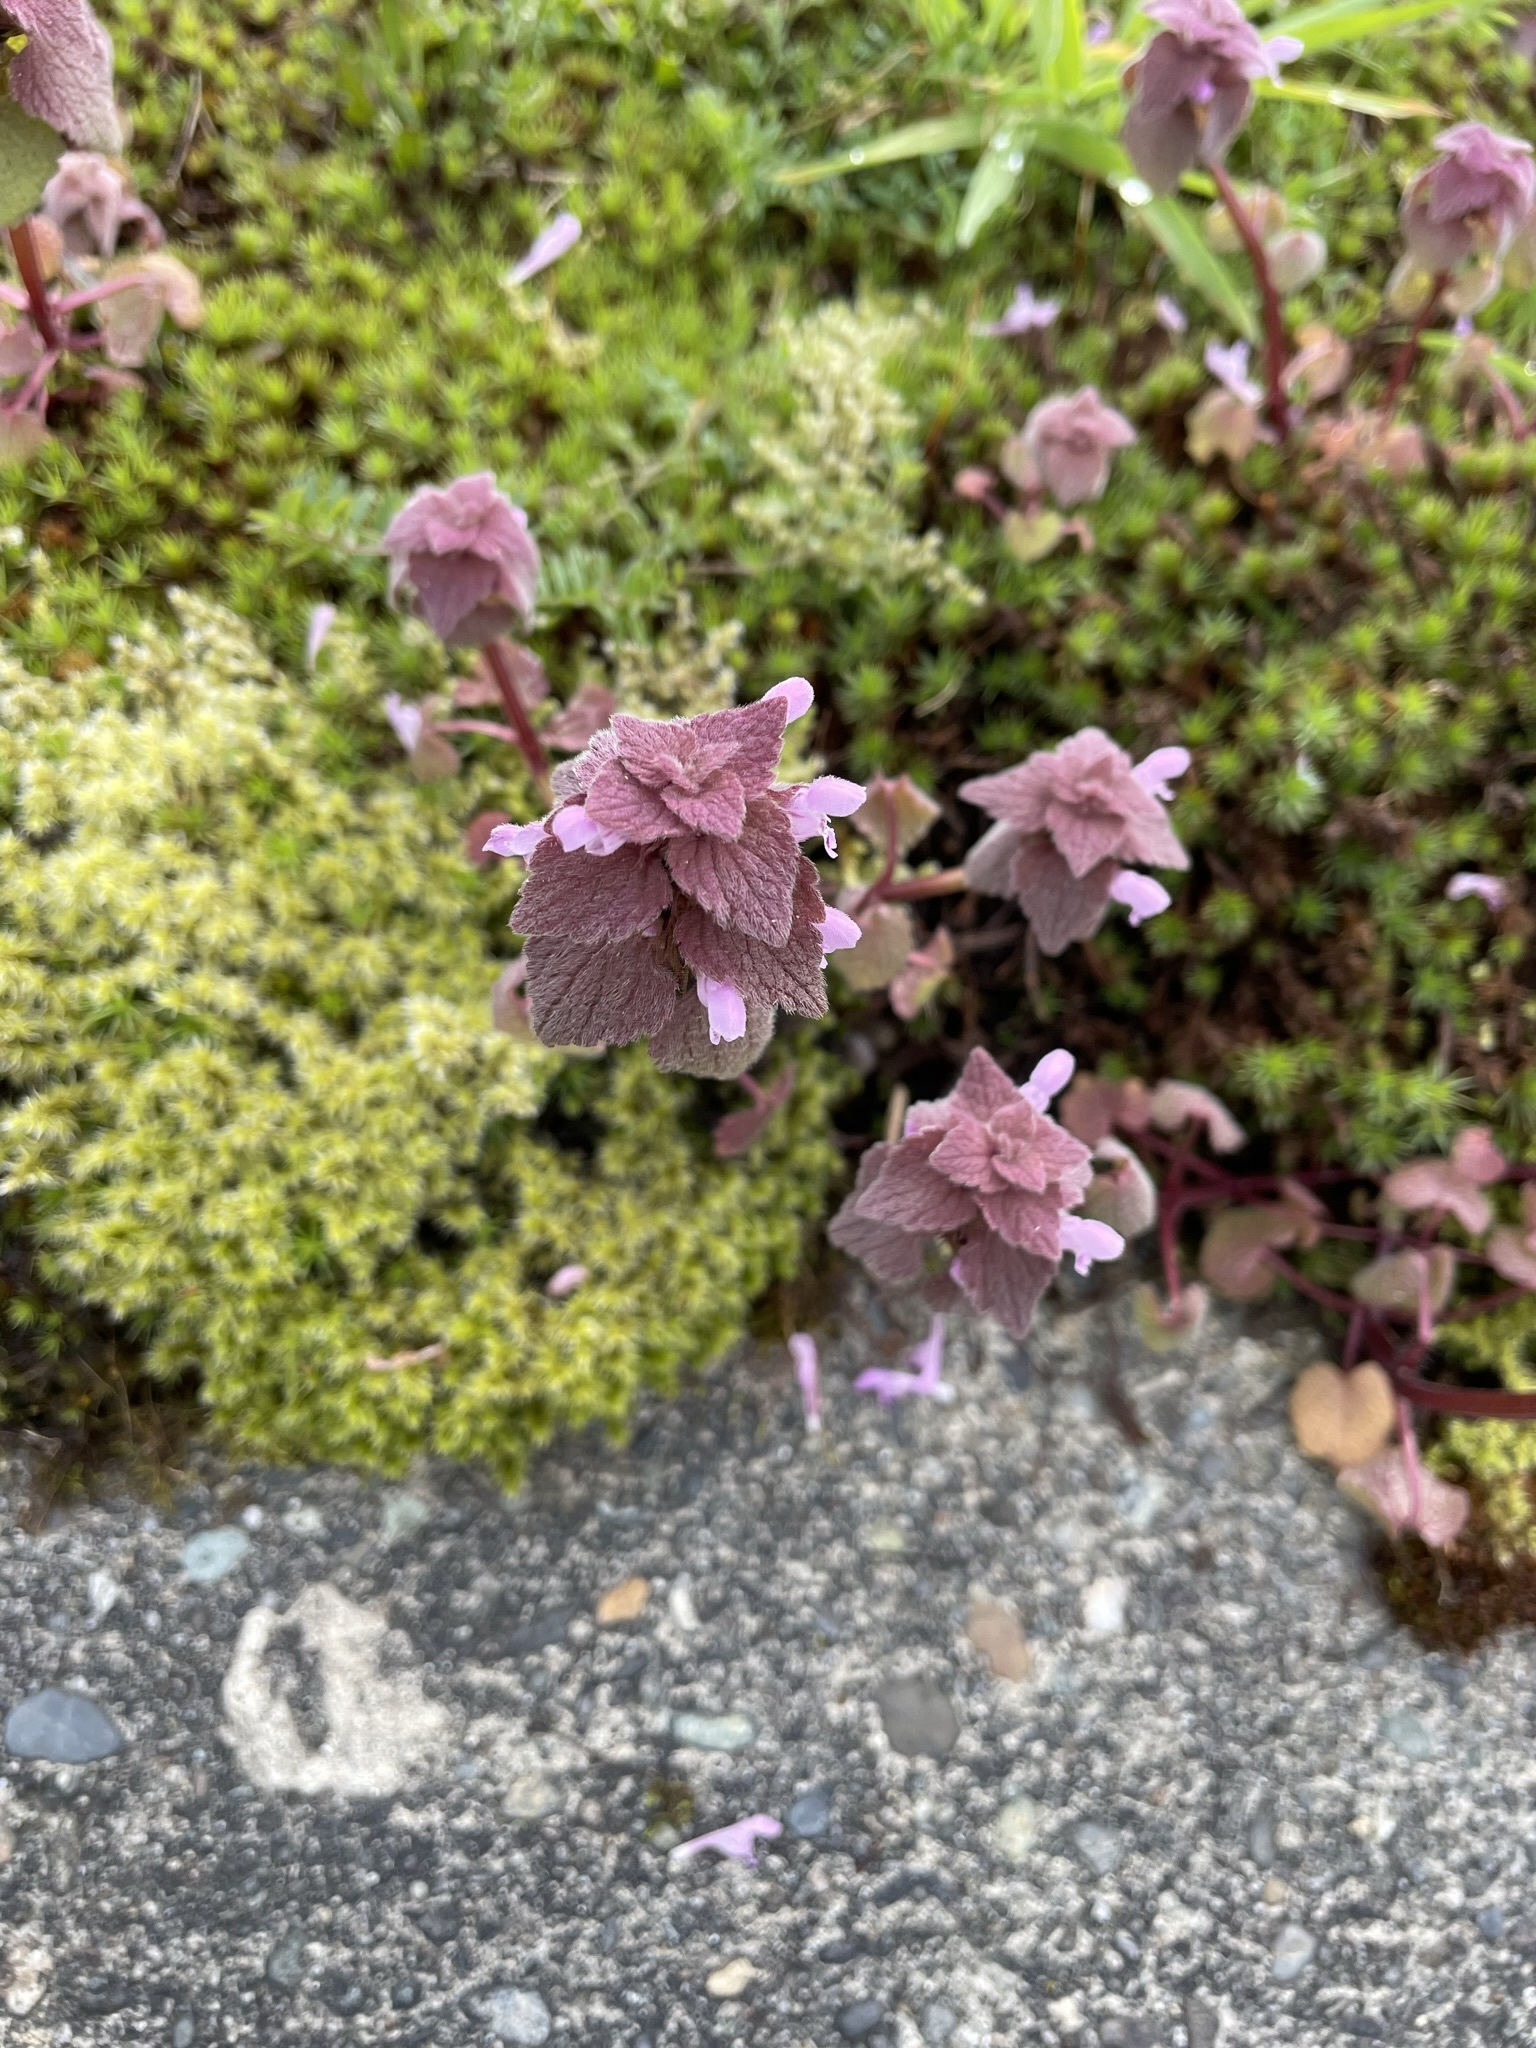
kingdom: Plantae
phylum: Tracheophyta
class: Magnoliopsida
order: Lamiales
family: Lamiaceae
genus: Lamium
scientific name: Lamium purpureum
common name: Red dead-nettle
